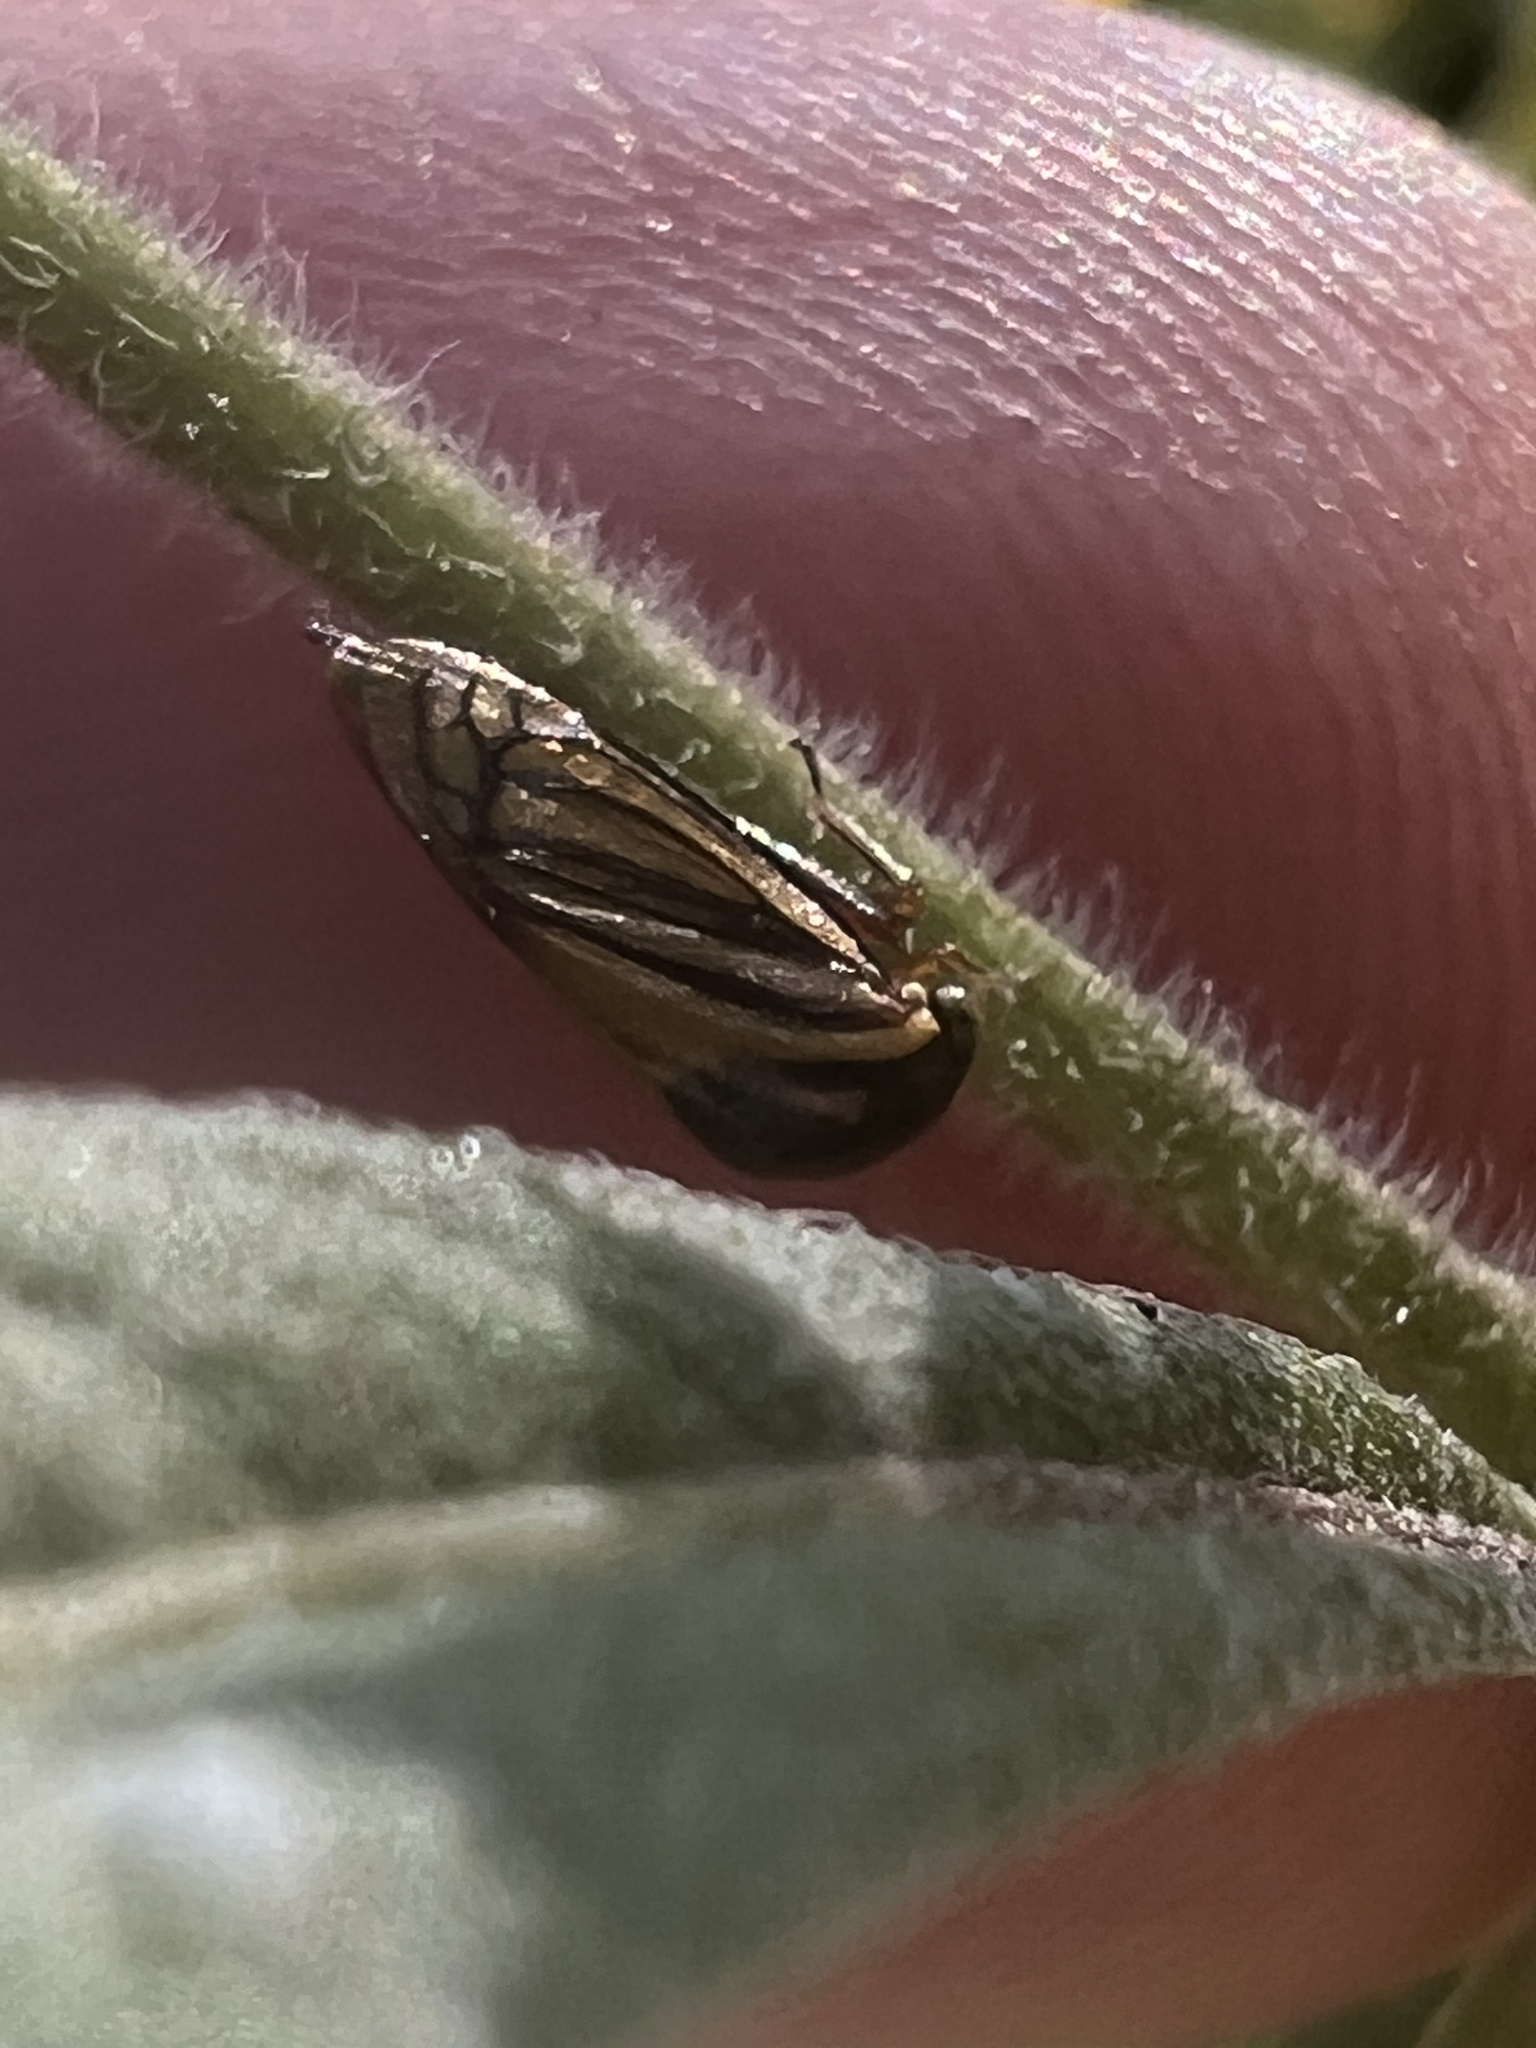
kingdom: Animalia
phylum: Arthropoda
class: Insecta
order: Hemiptera
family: Membracidae
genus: Acutalis
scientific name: Acutalis tartarea
